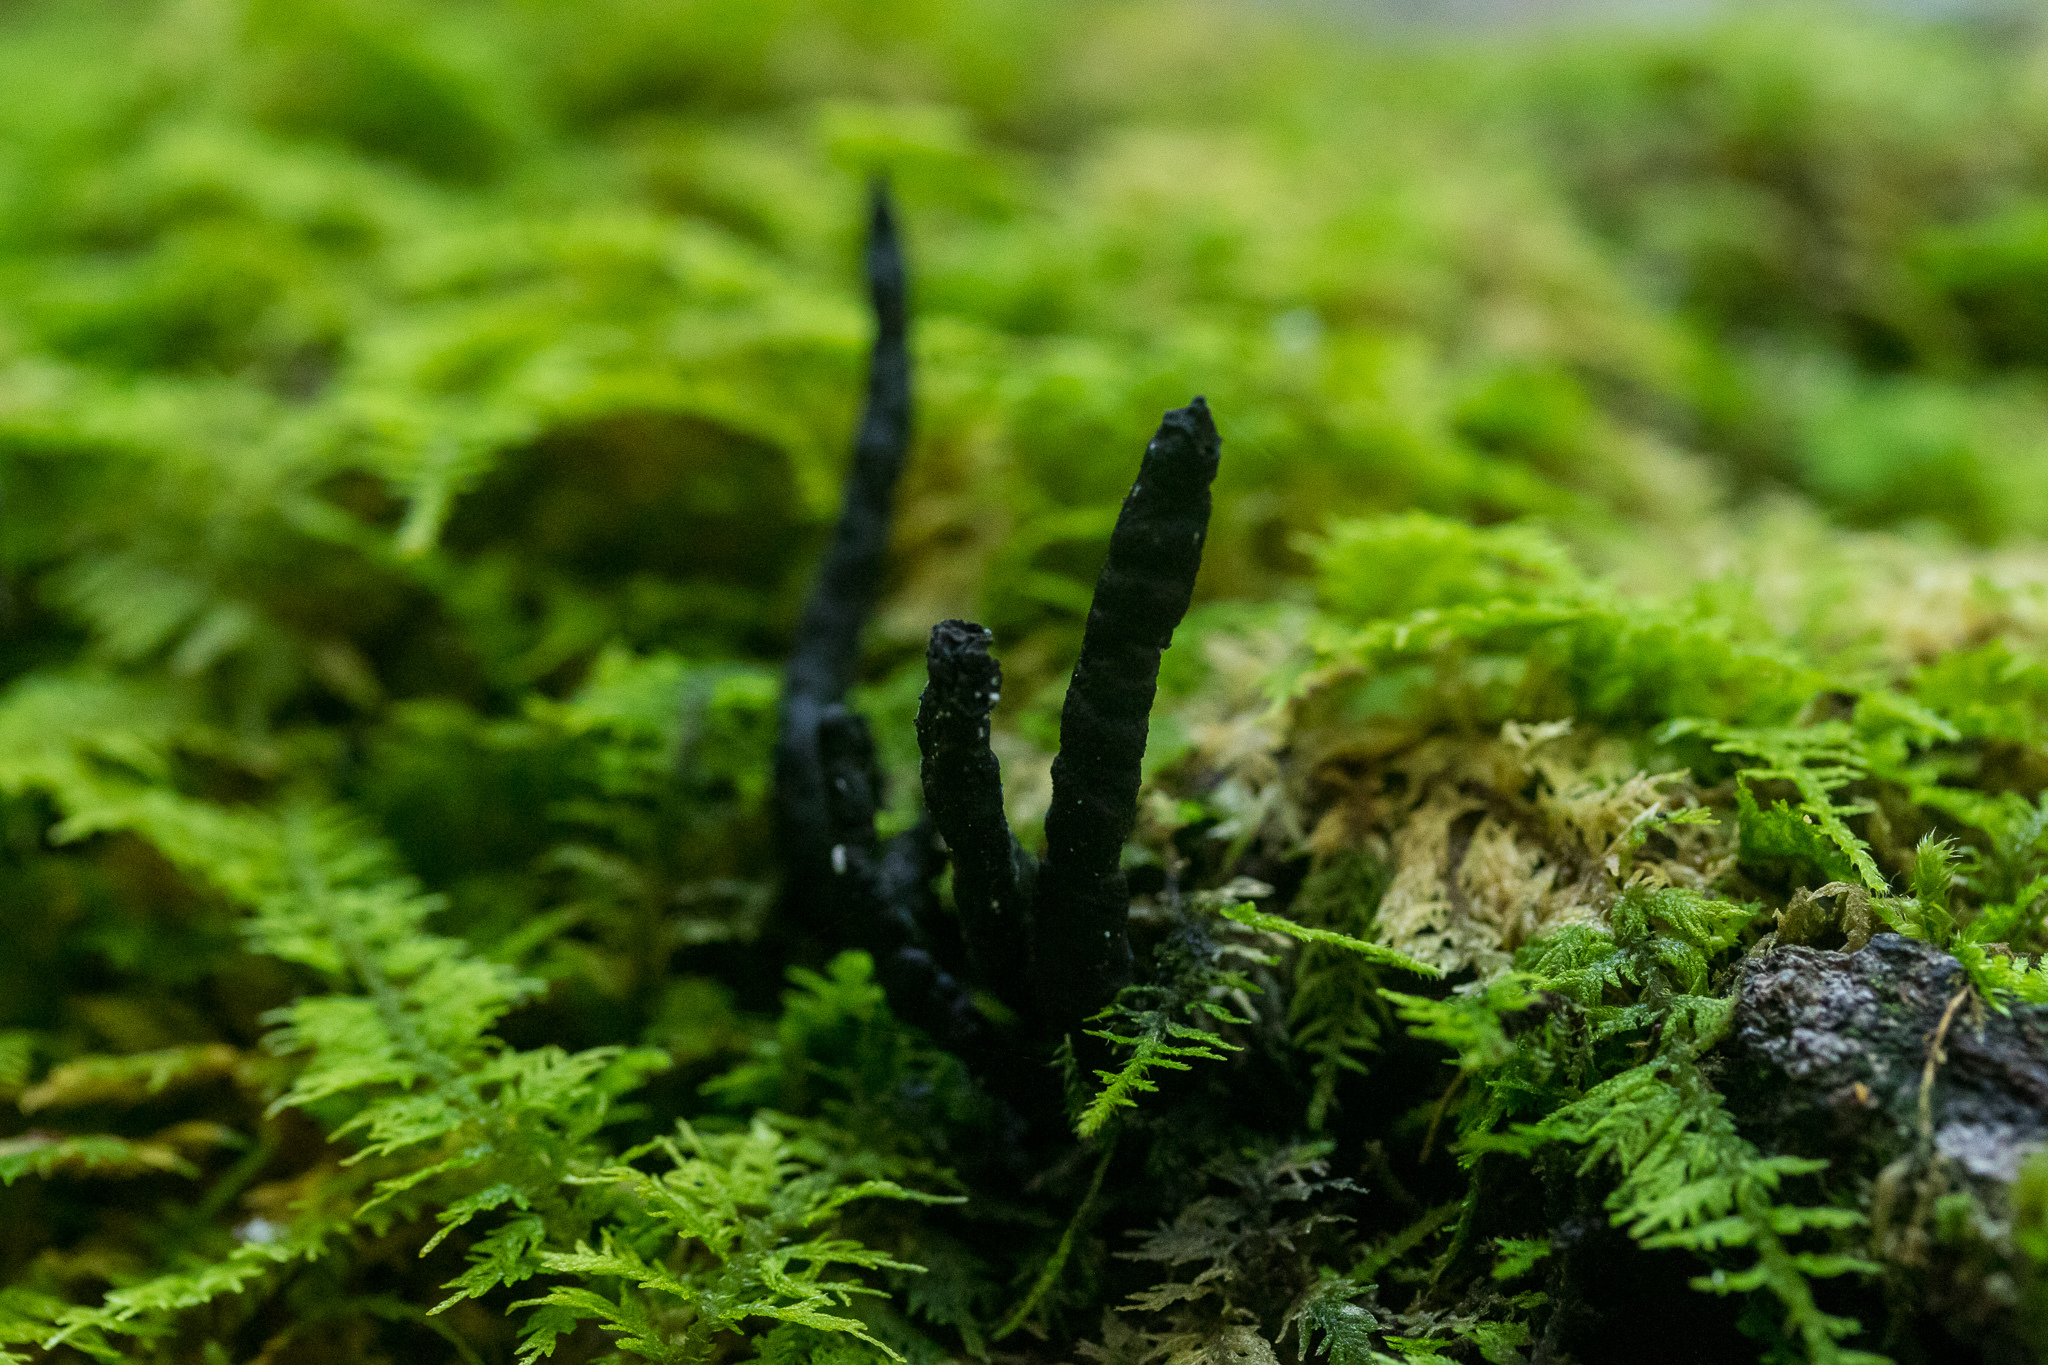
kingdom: Fungi
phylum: Ascomycota
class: Sordariomycetes
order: Xylariales
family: Xylariaceae
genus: Xylaria
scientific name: Xylaria cornu-damae
